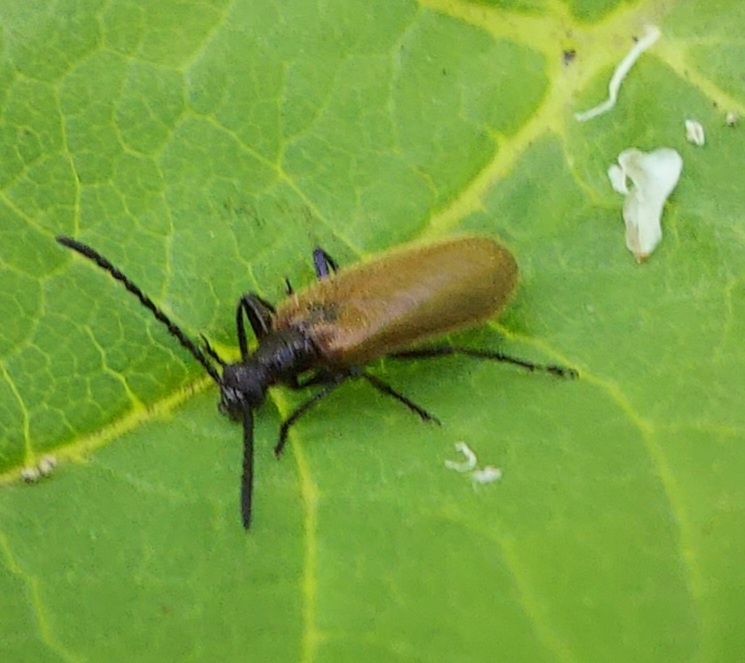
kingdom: Animalia
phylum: Arthropoda
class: Insecta
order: Coleoptera
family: Tenebrionidae
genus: Lagria
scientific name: Lagria hirta
